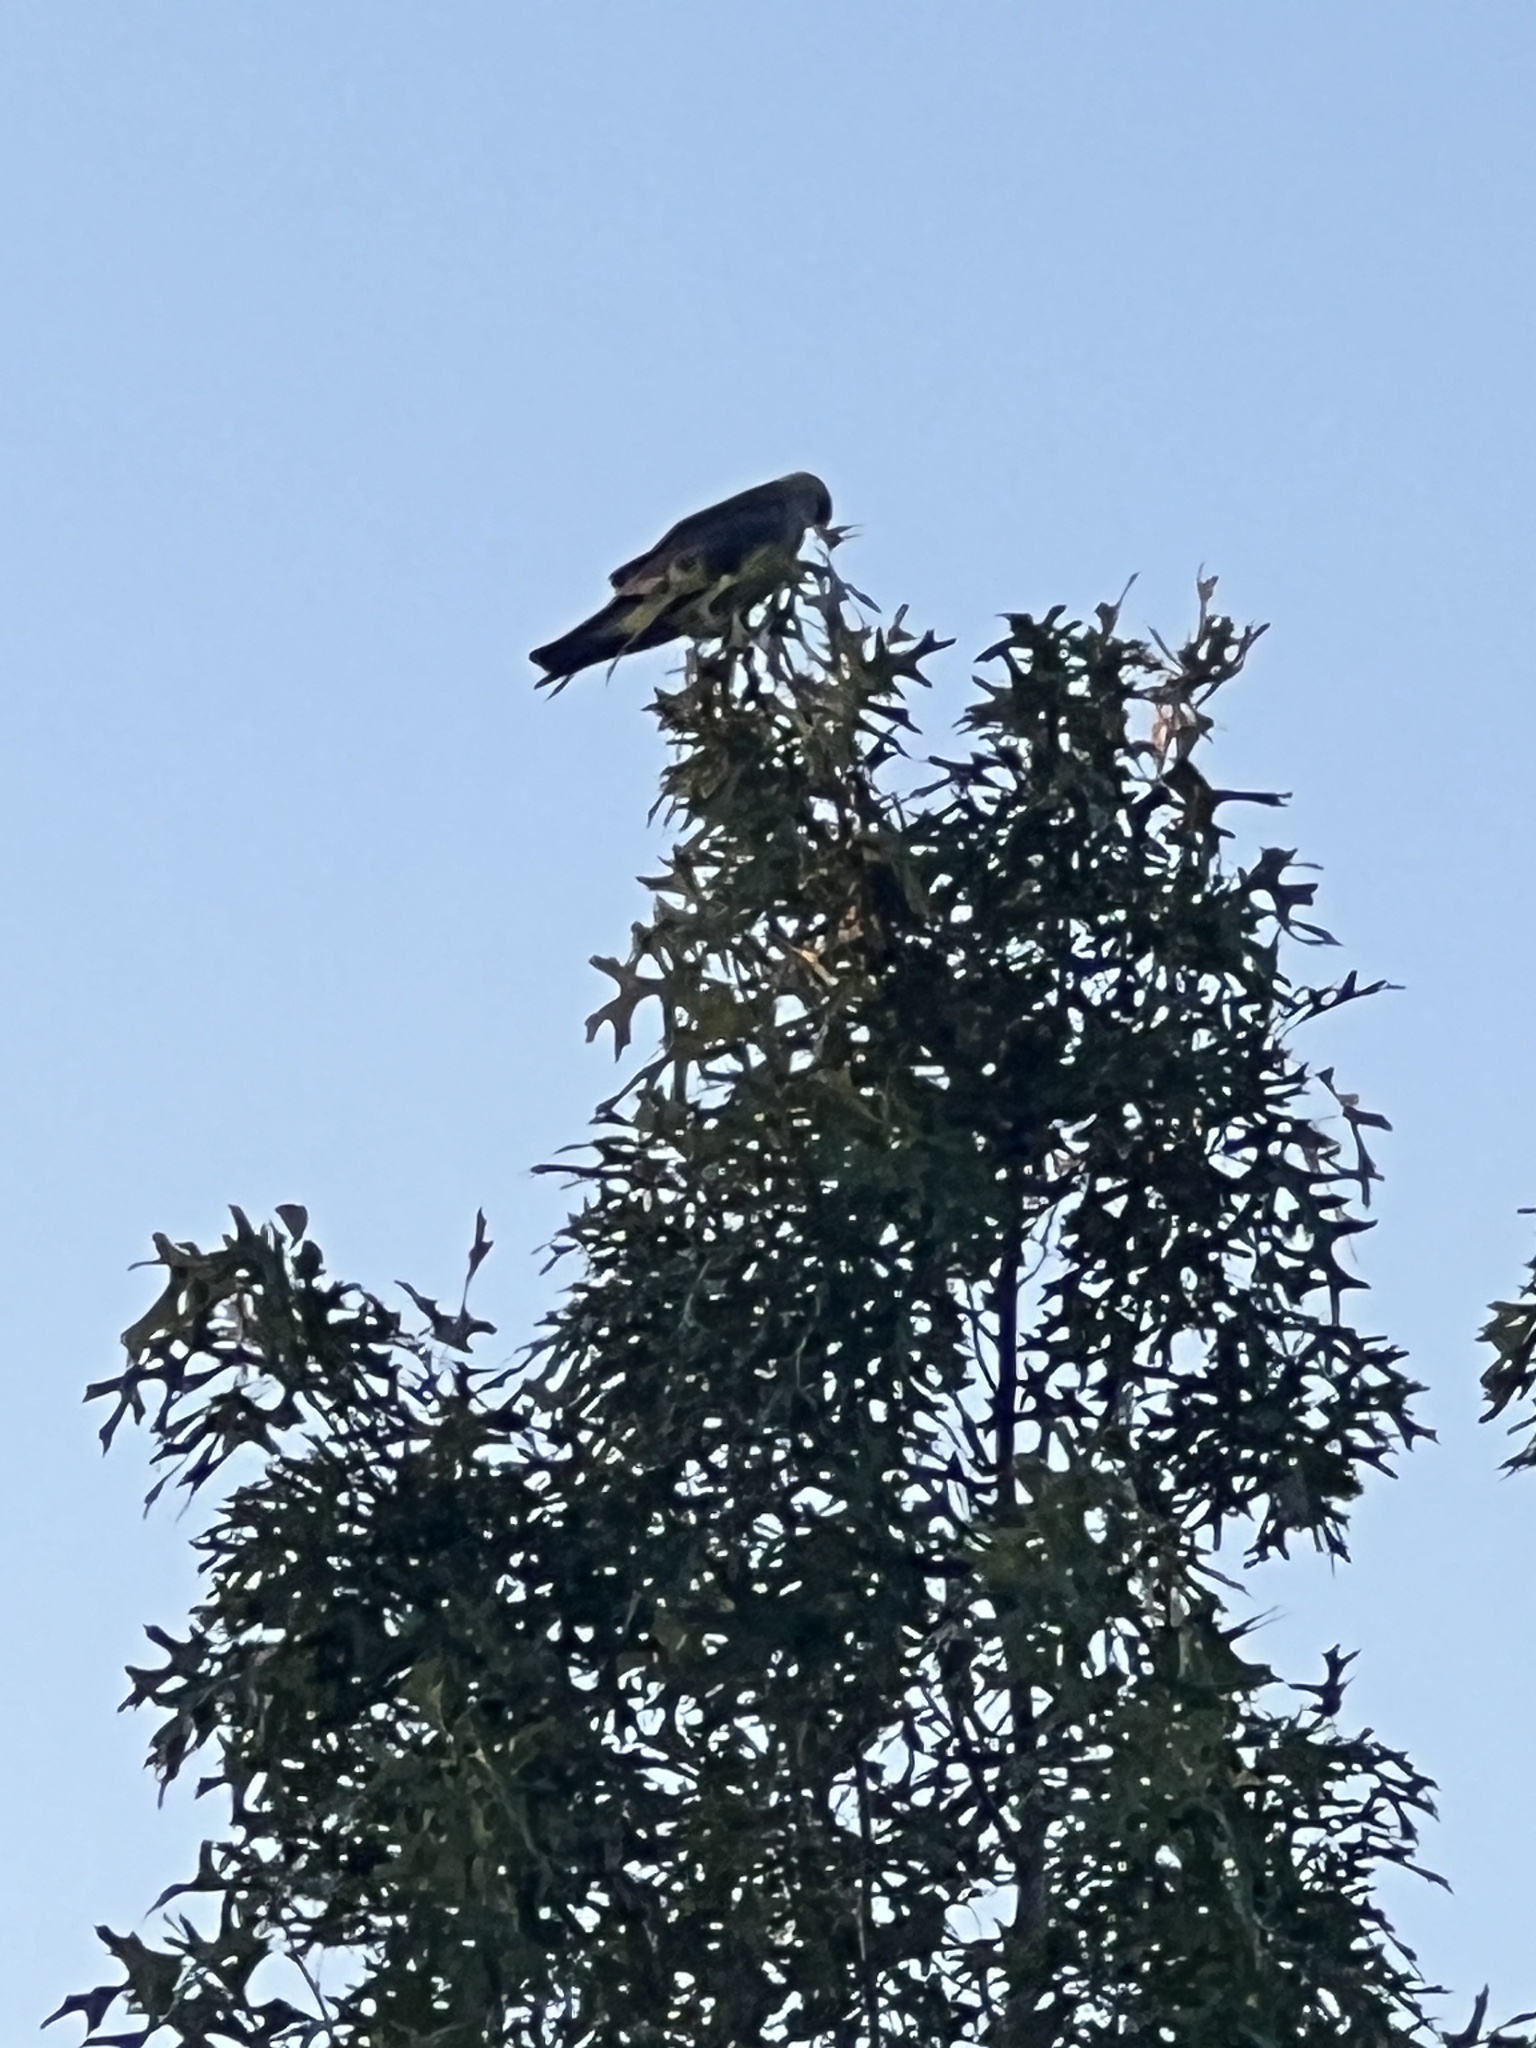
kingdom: Animalia
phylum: Chordata
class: Aves
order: Accipitriformes
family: Accipitridae
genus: Ictinia
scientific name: Ictinia mississippiensis
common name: Mississippi kite
